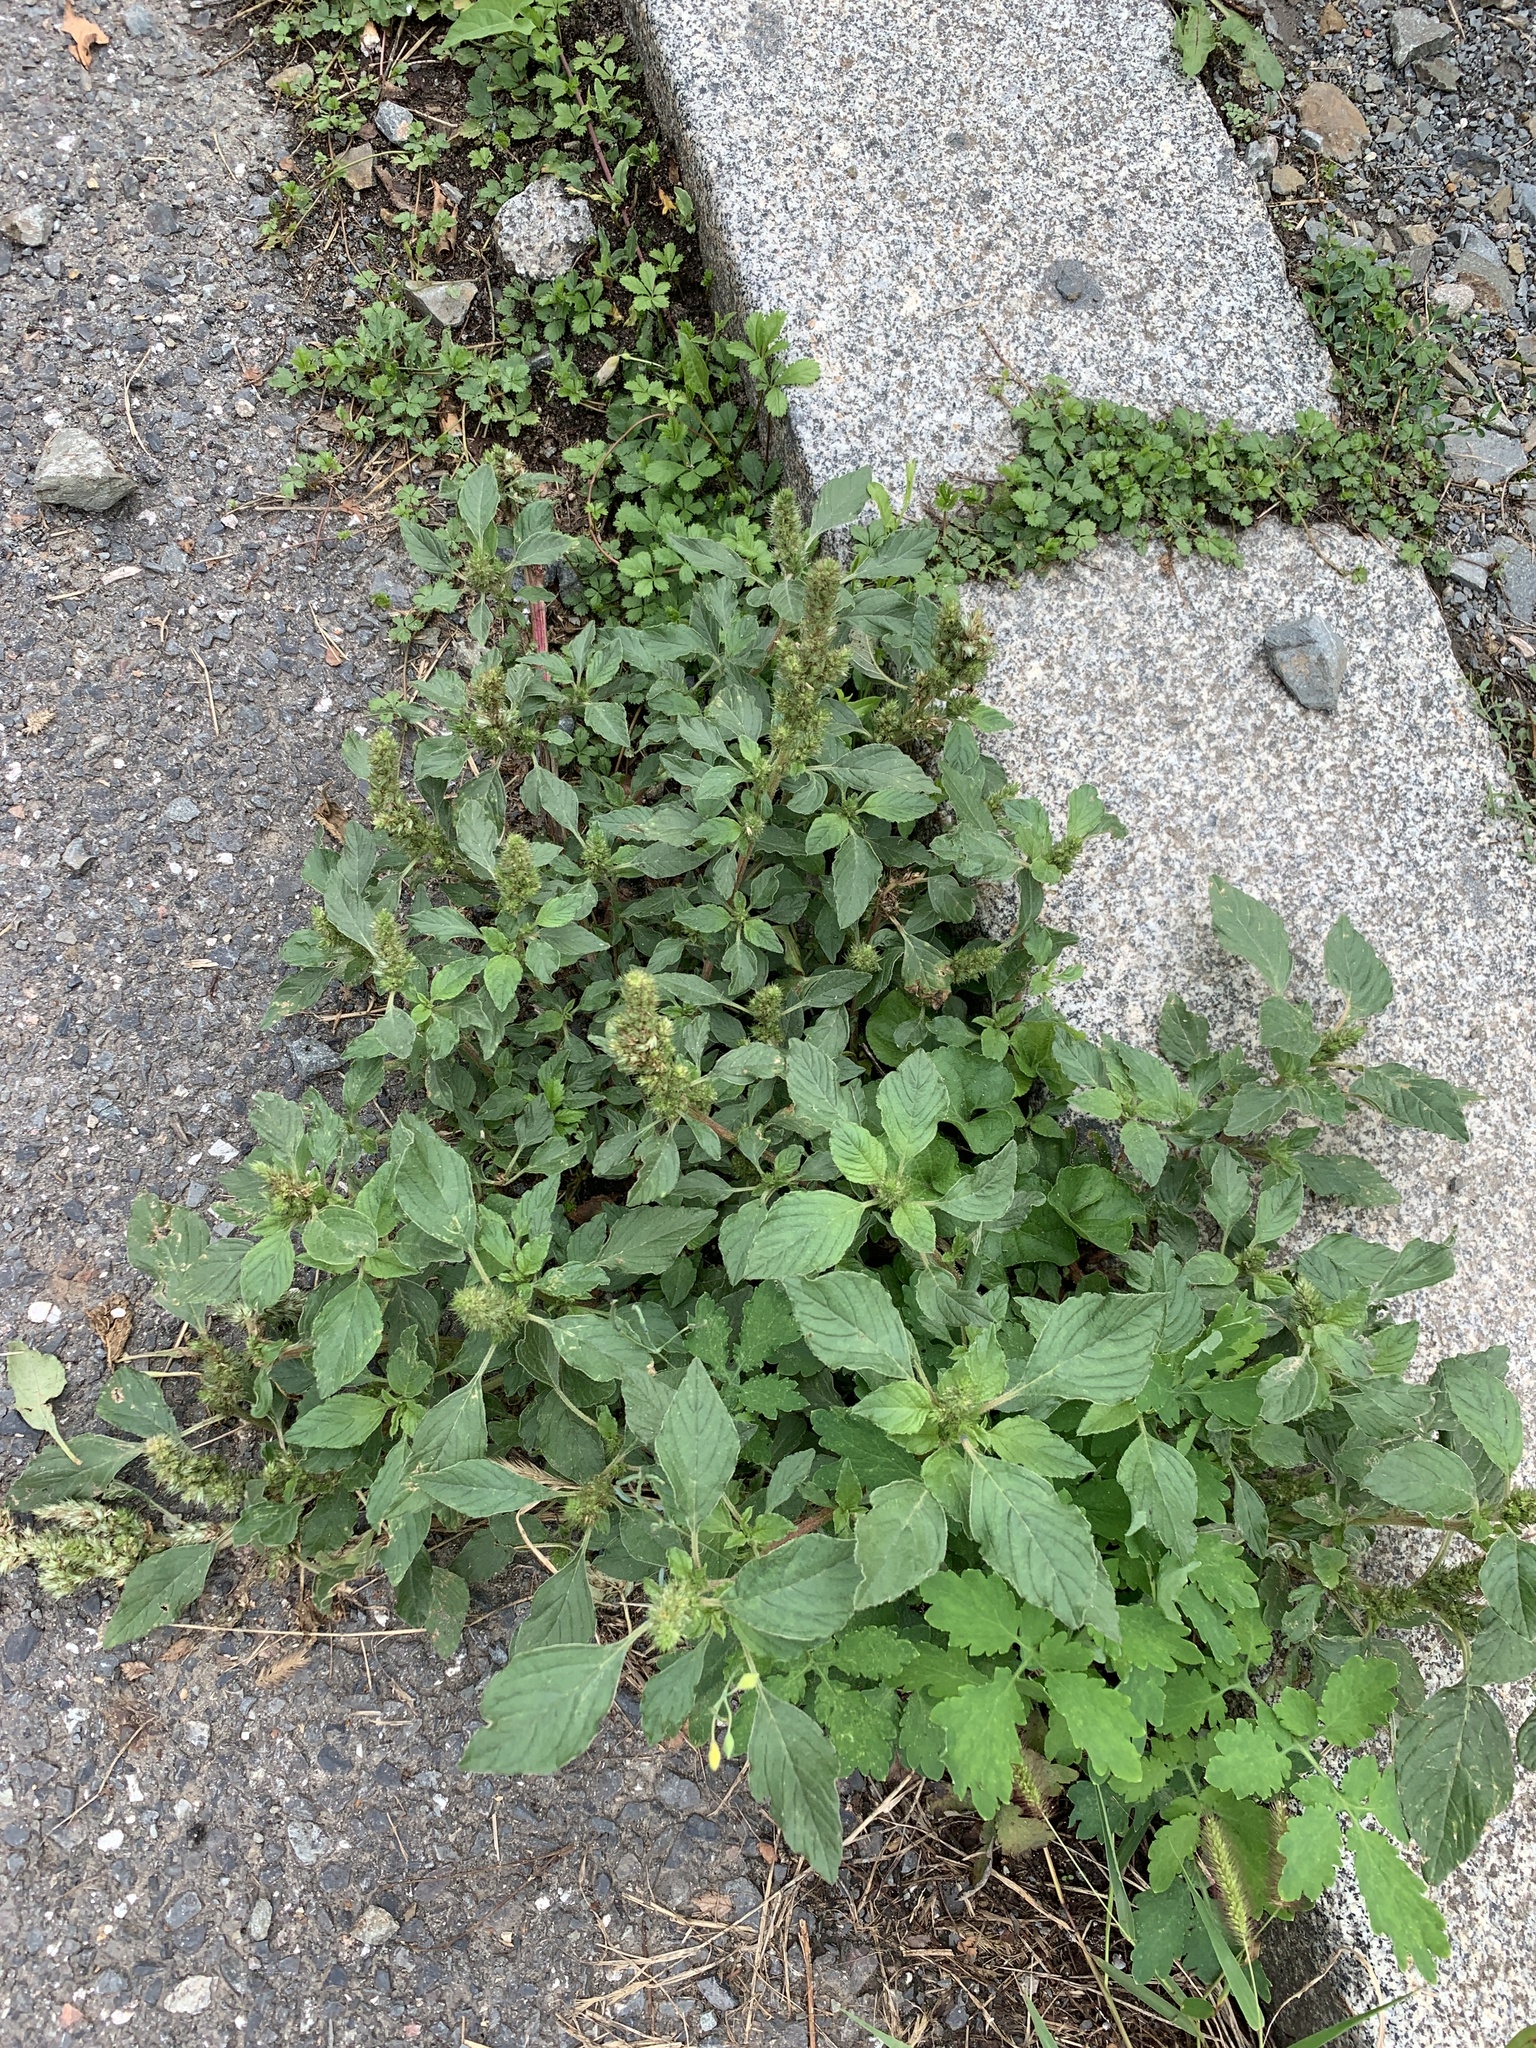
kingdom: Plantae
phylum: Tracheophyta
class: Magnoliopsida
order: Caryophyllales
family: Amaranthaceae
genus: Amaranthus
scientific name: Amaranthus retroflexus
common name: Redroot amaranth
